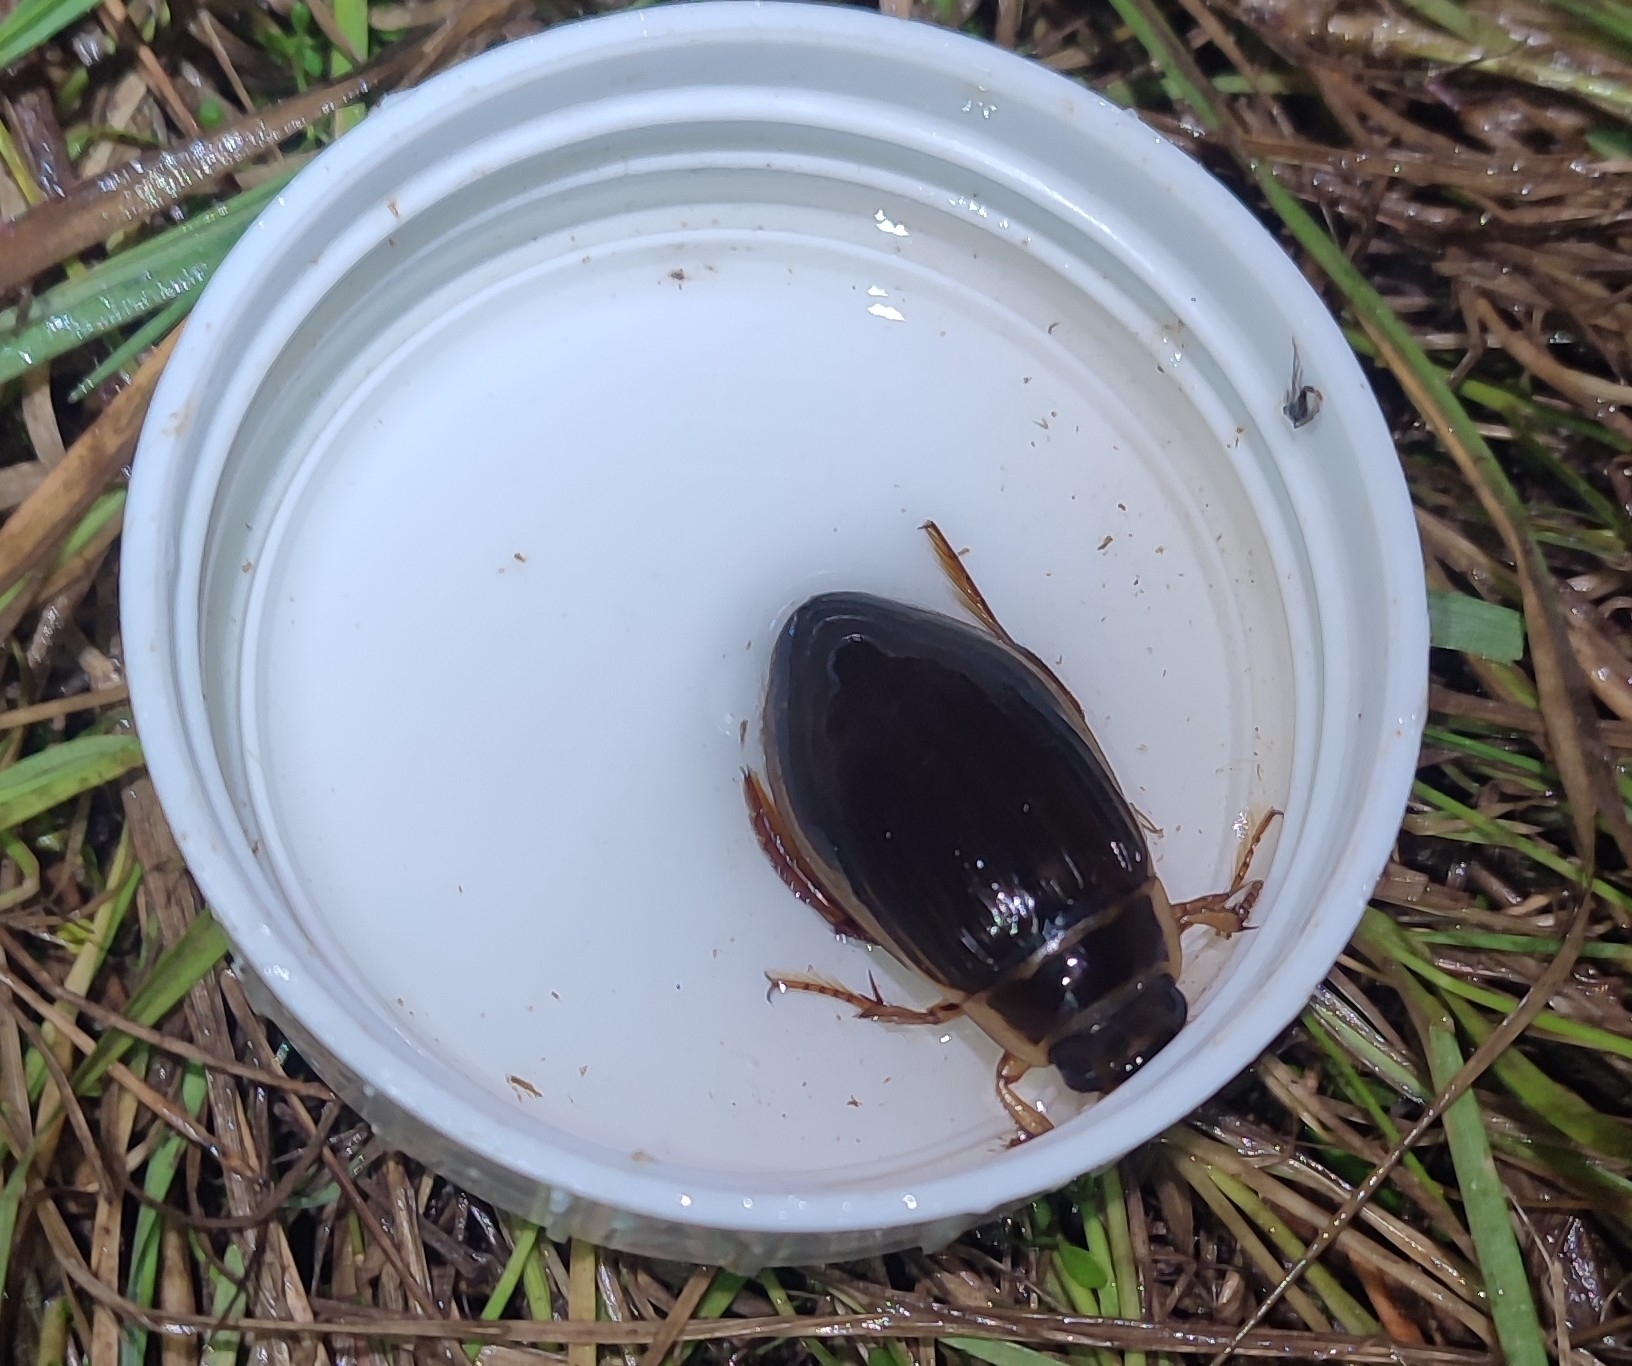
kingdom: Animalia
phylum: Arthropoda
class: Insecta
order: Coleoptera
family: Dytiscidae
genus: Dytiscus
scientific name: Dytiscus marginalis
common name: Great water beetle
